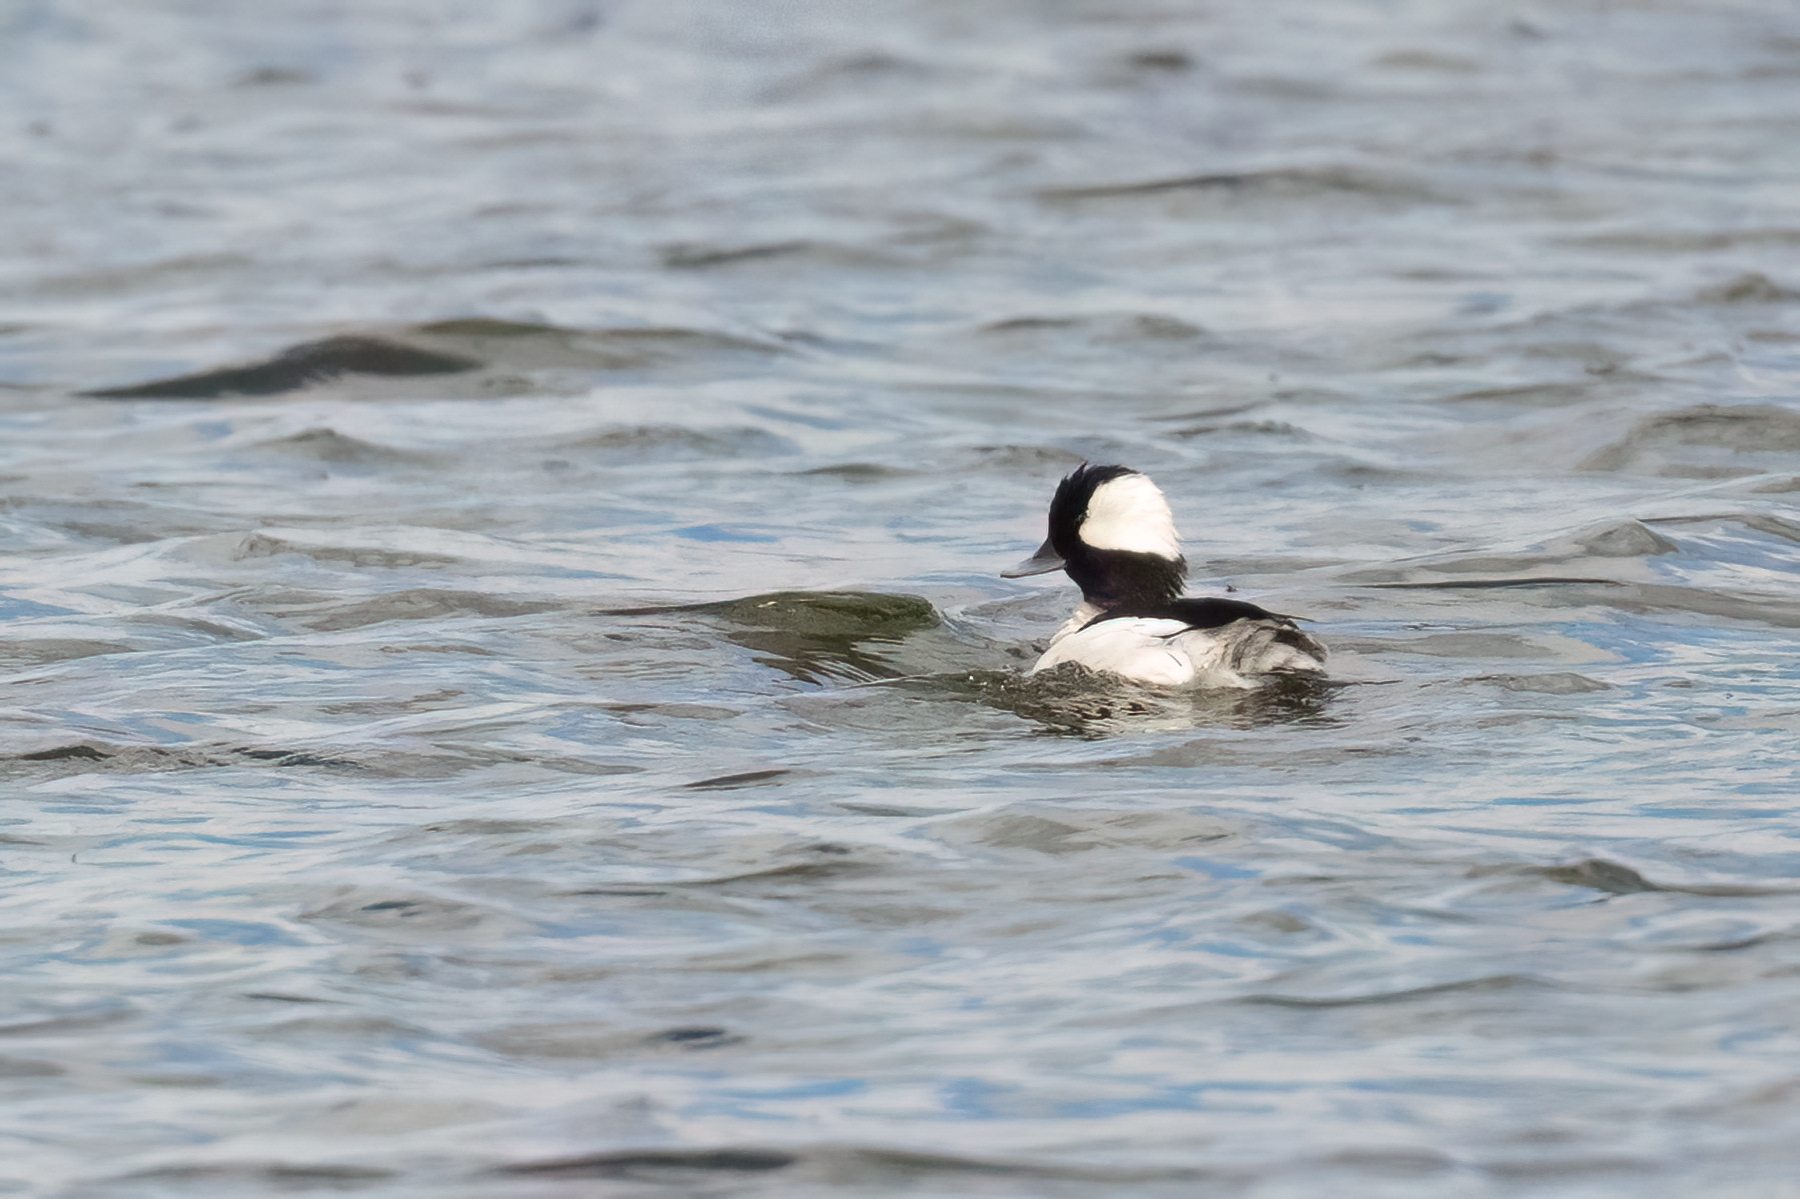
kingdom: Animalia
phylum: Chordata
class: Aves
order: Anseriformes
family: Anatidae
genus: Bucephala
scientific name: Bucephala albeola
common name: Bufflehead
